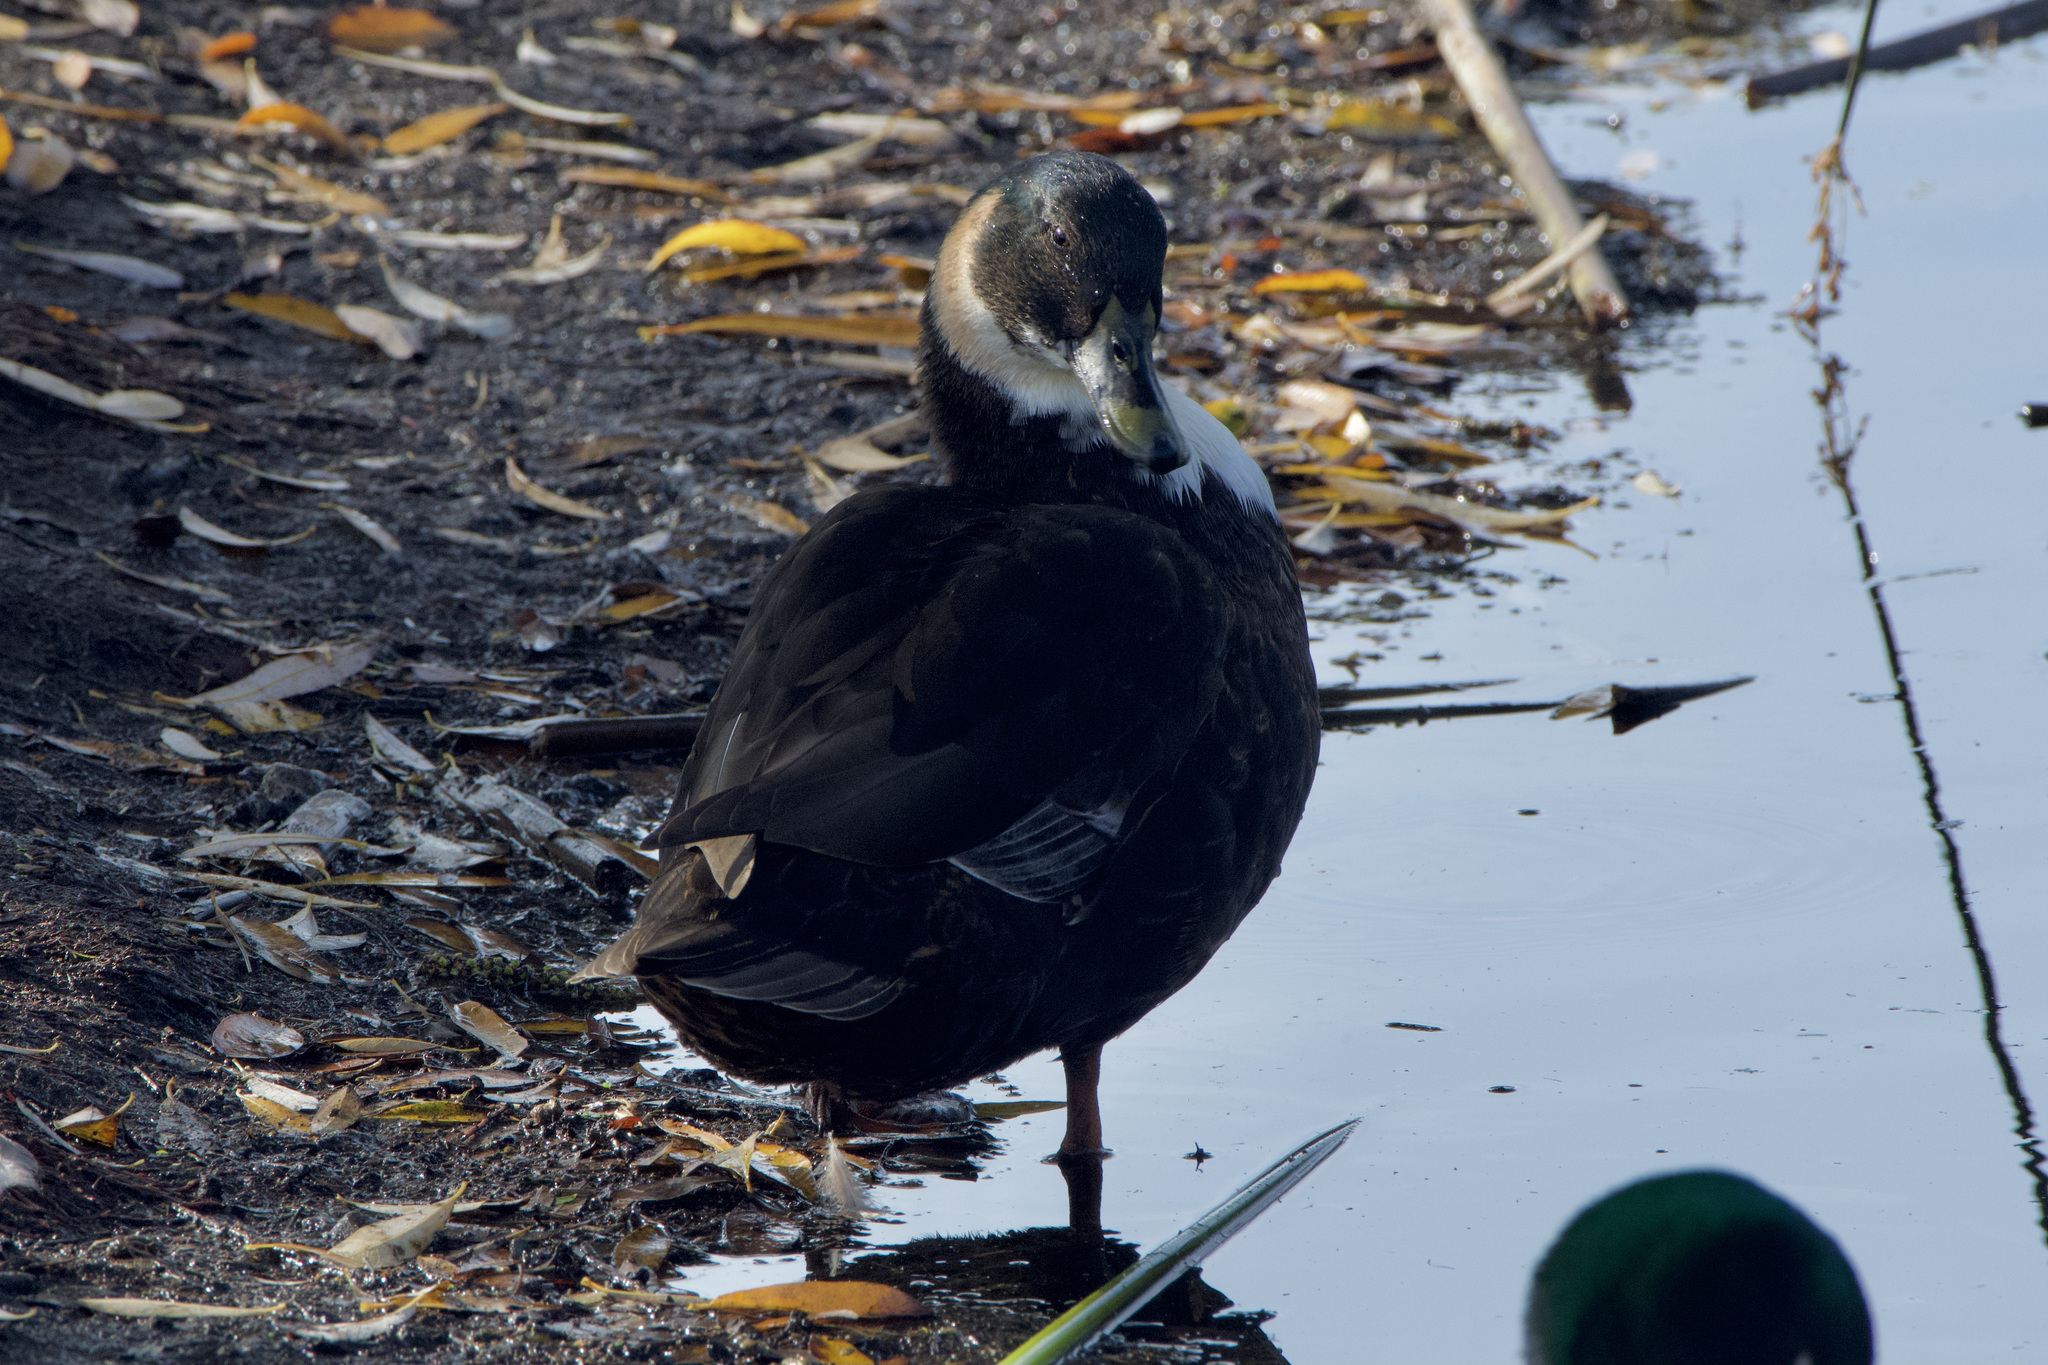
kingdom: Animalia
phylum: Chordata
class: Aves
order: Anseriformes
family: Anatidae
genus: Anas
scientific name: Anas platyrhynchos
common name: Mallard
